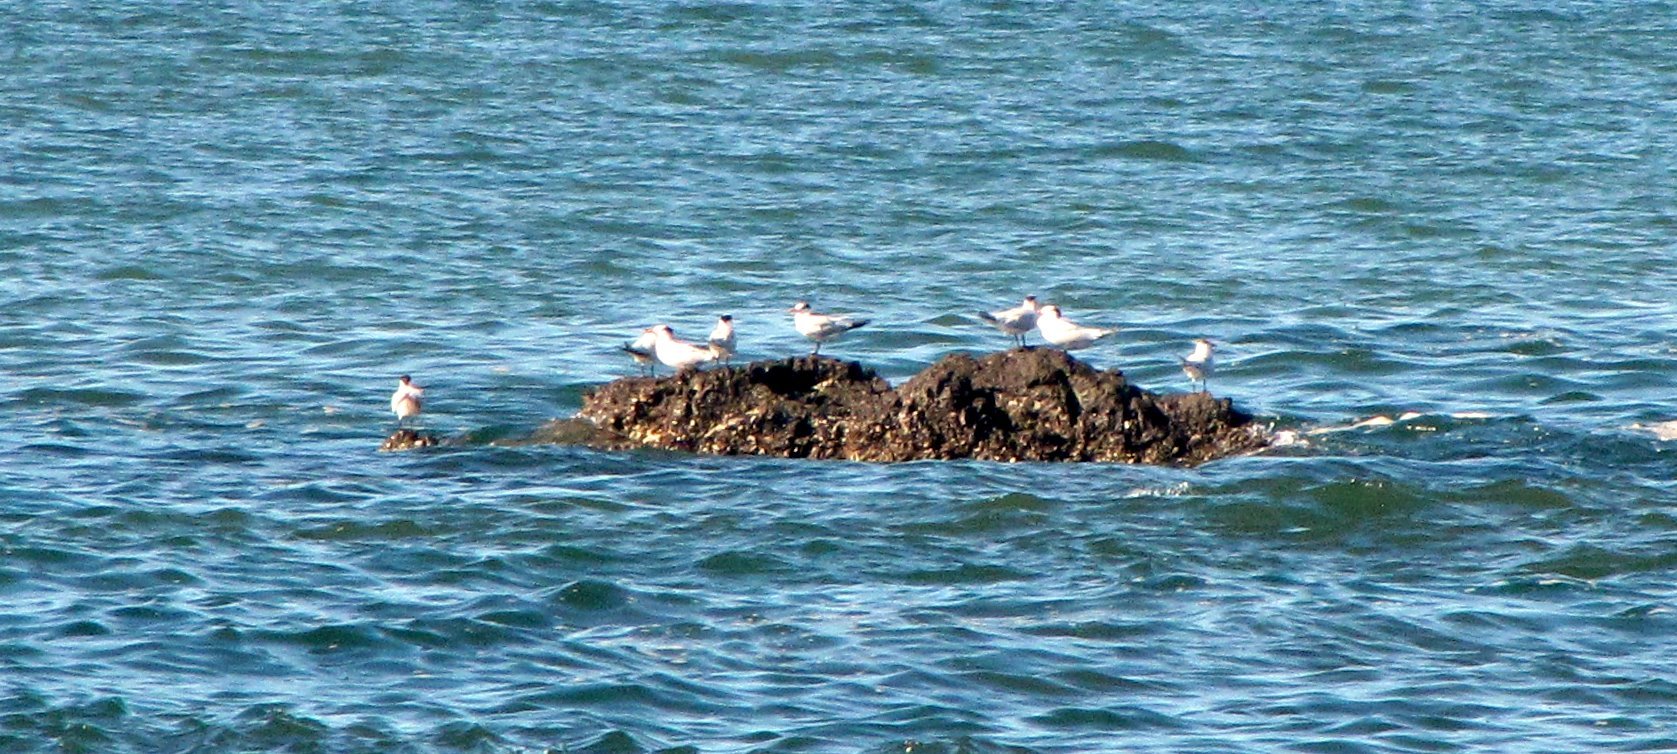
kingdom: Animalia
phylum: Chordata
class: Aves
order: Charadriiformes
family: Laridae
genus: Thalasseus
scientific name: Thalasseus maximus
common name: Royal tern
